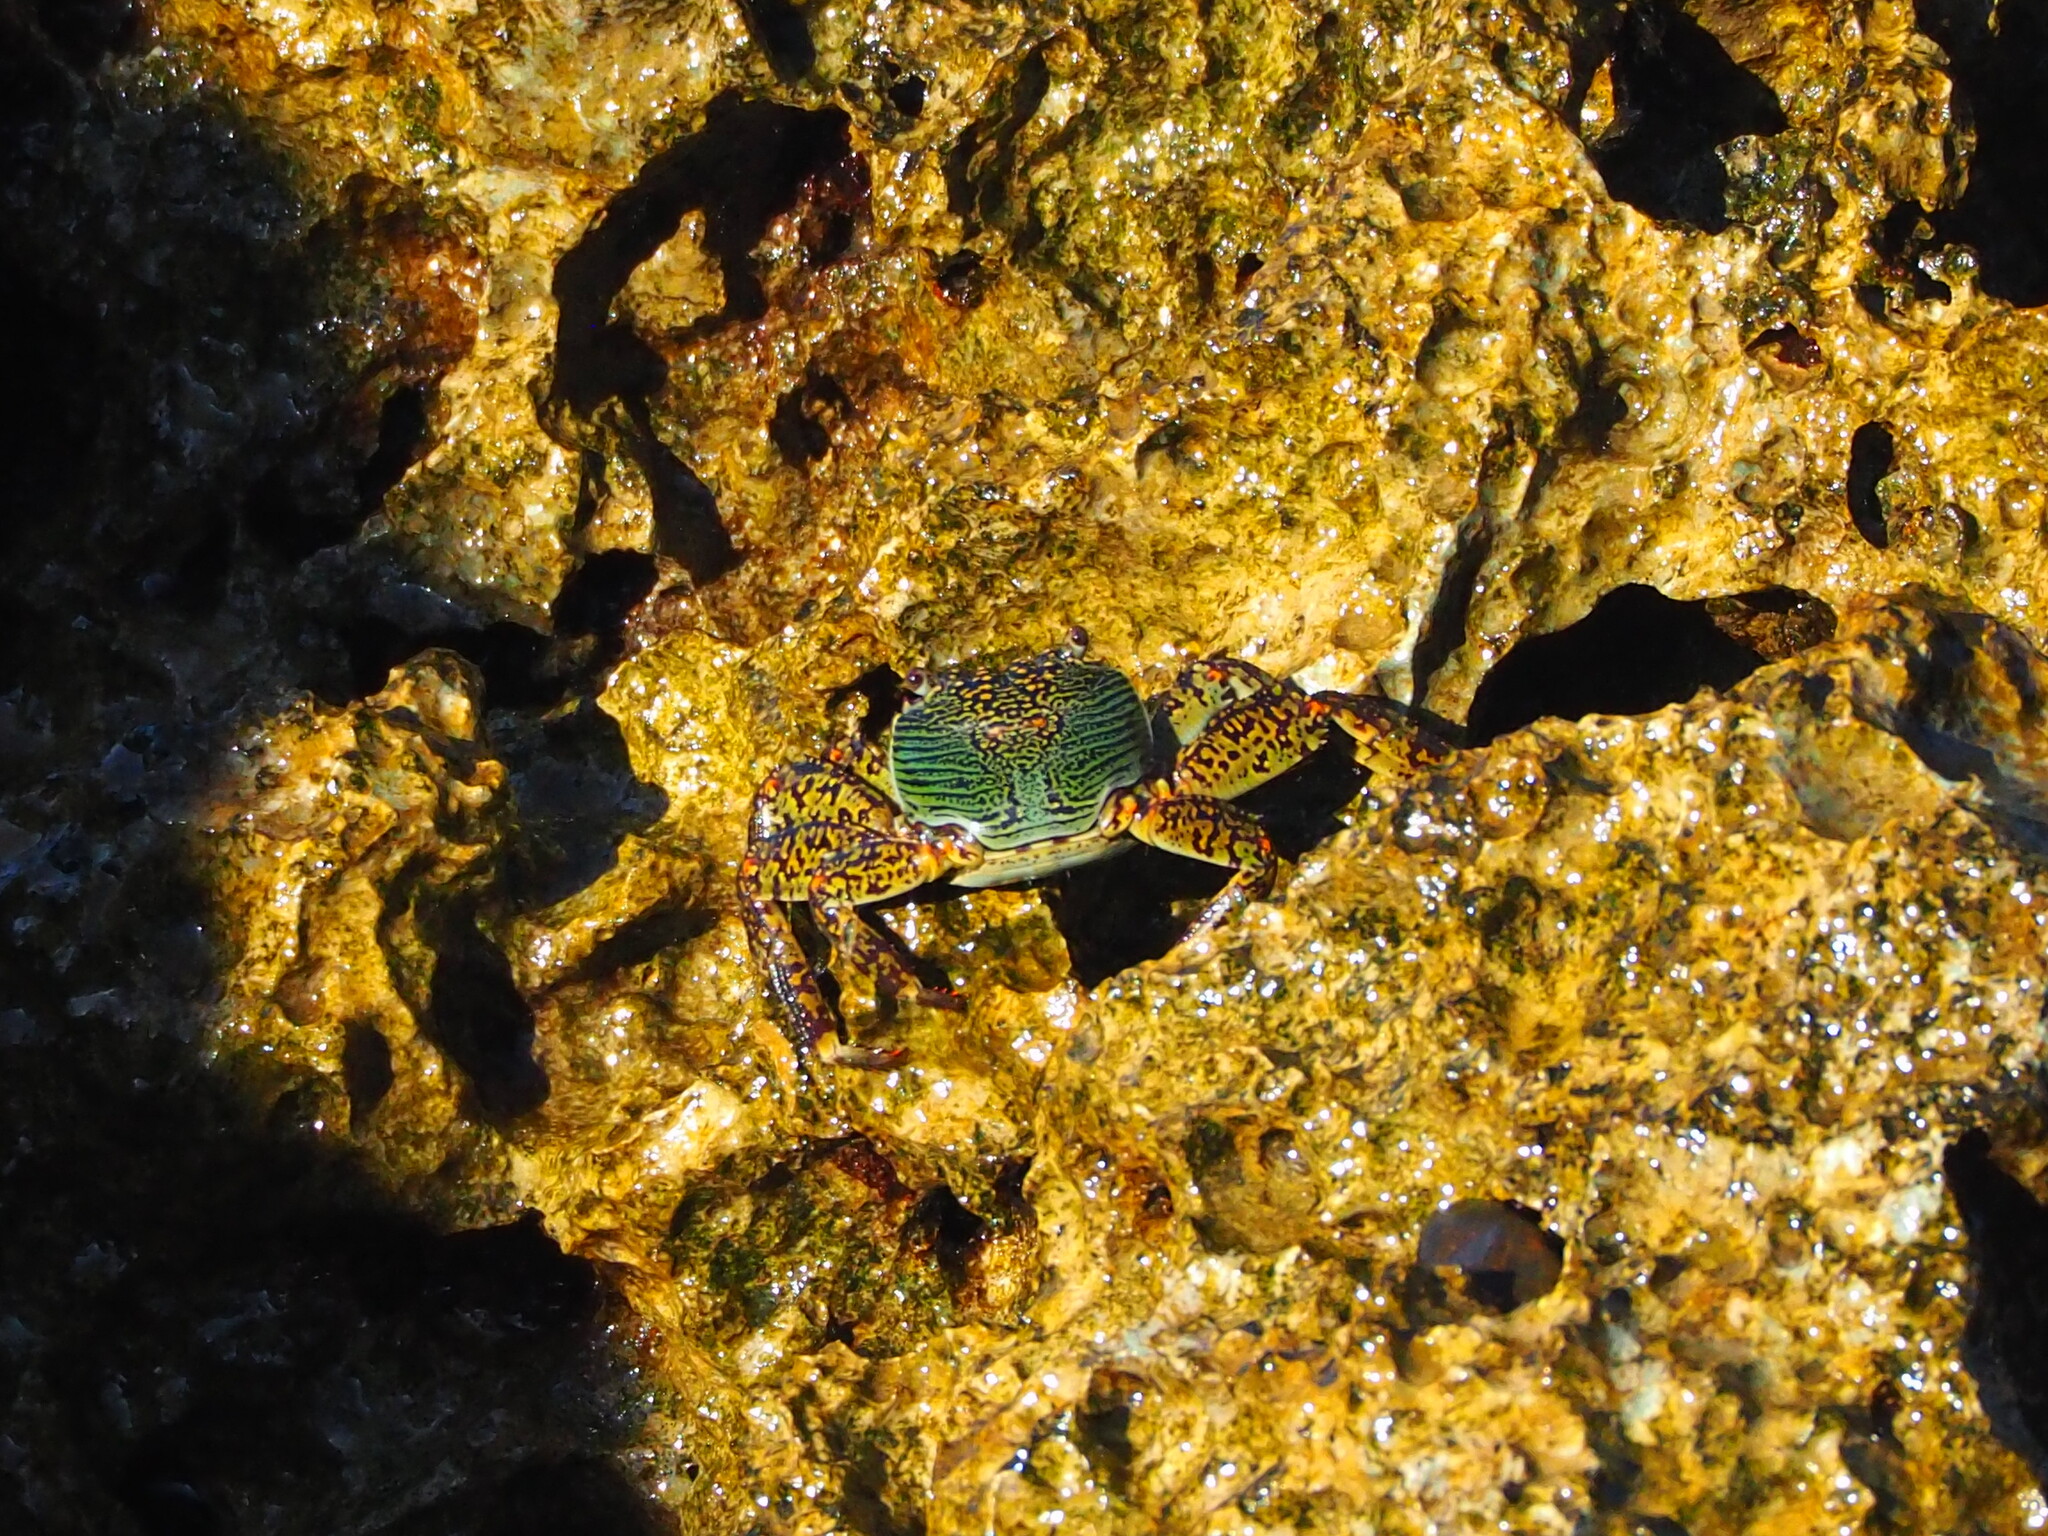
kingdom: Animalia
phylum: Arthropoda
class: Malacostraca
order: Decapoda
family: Grapsidae
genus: Grapsus
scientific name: Grapsus albolineatus
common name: Mottled lightfoot crab
